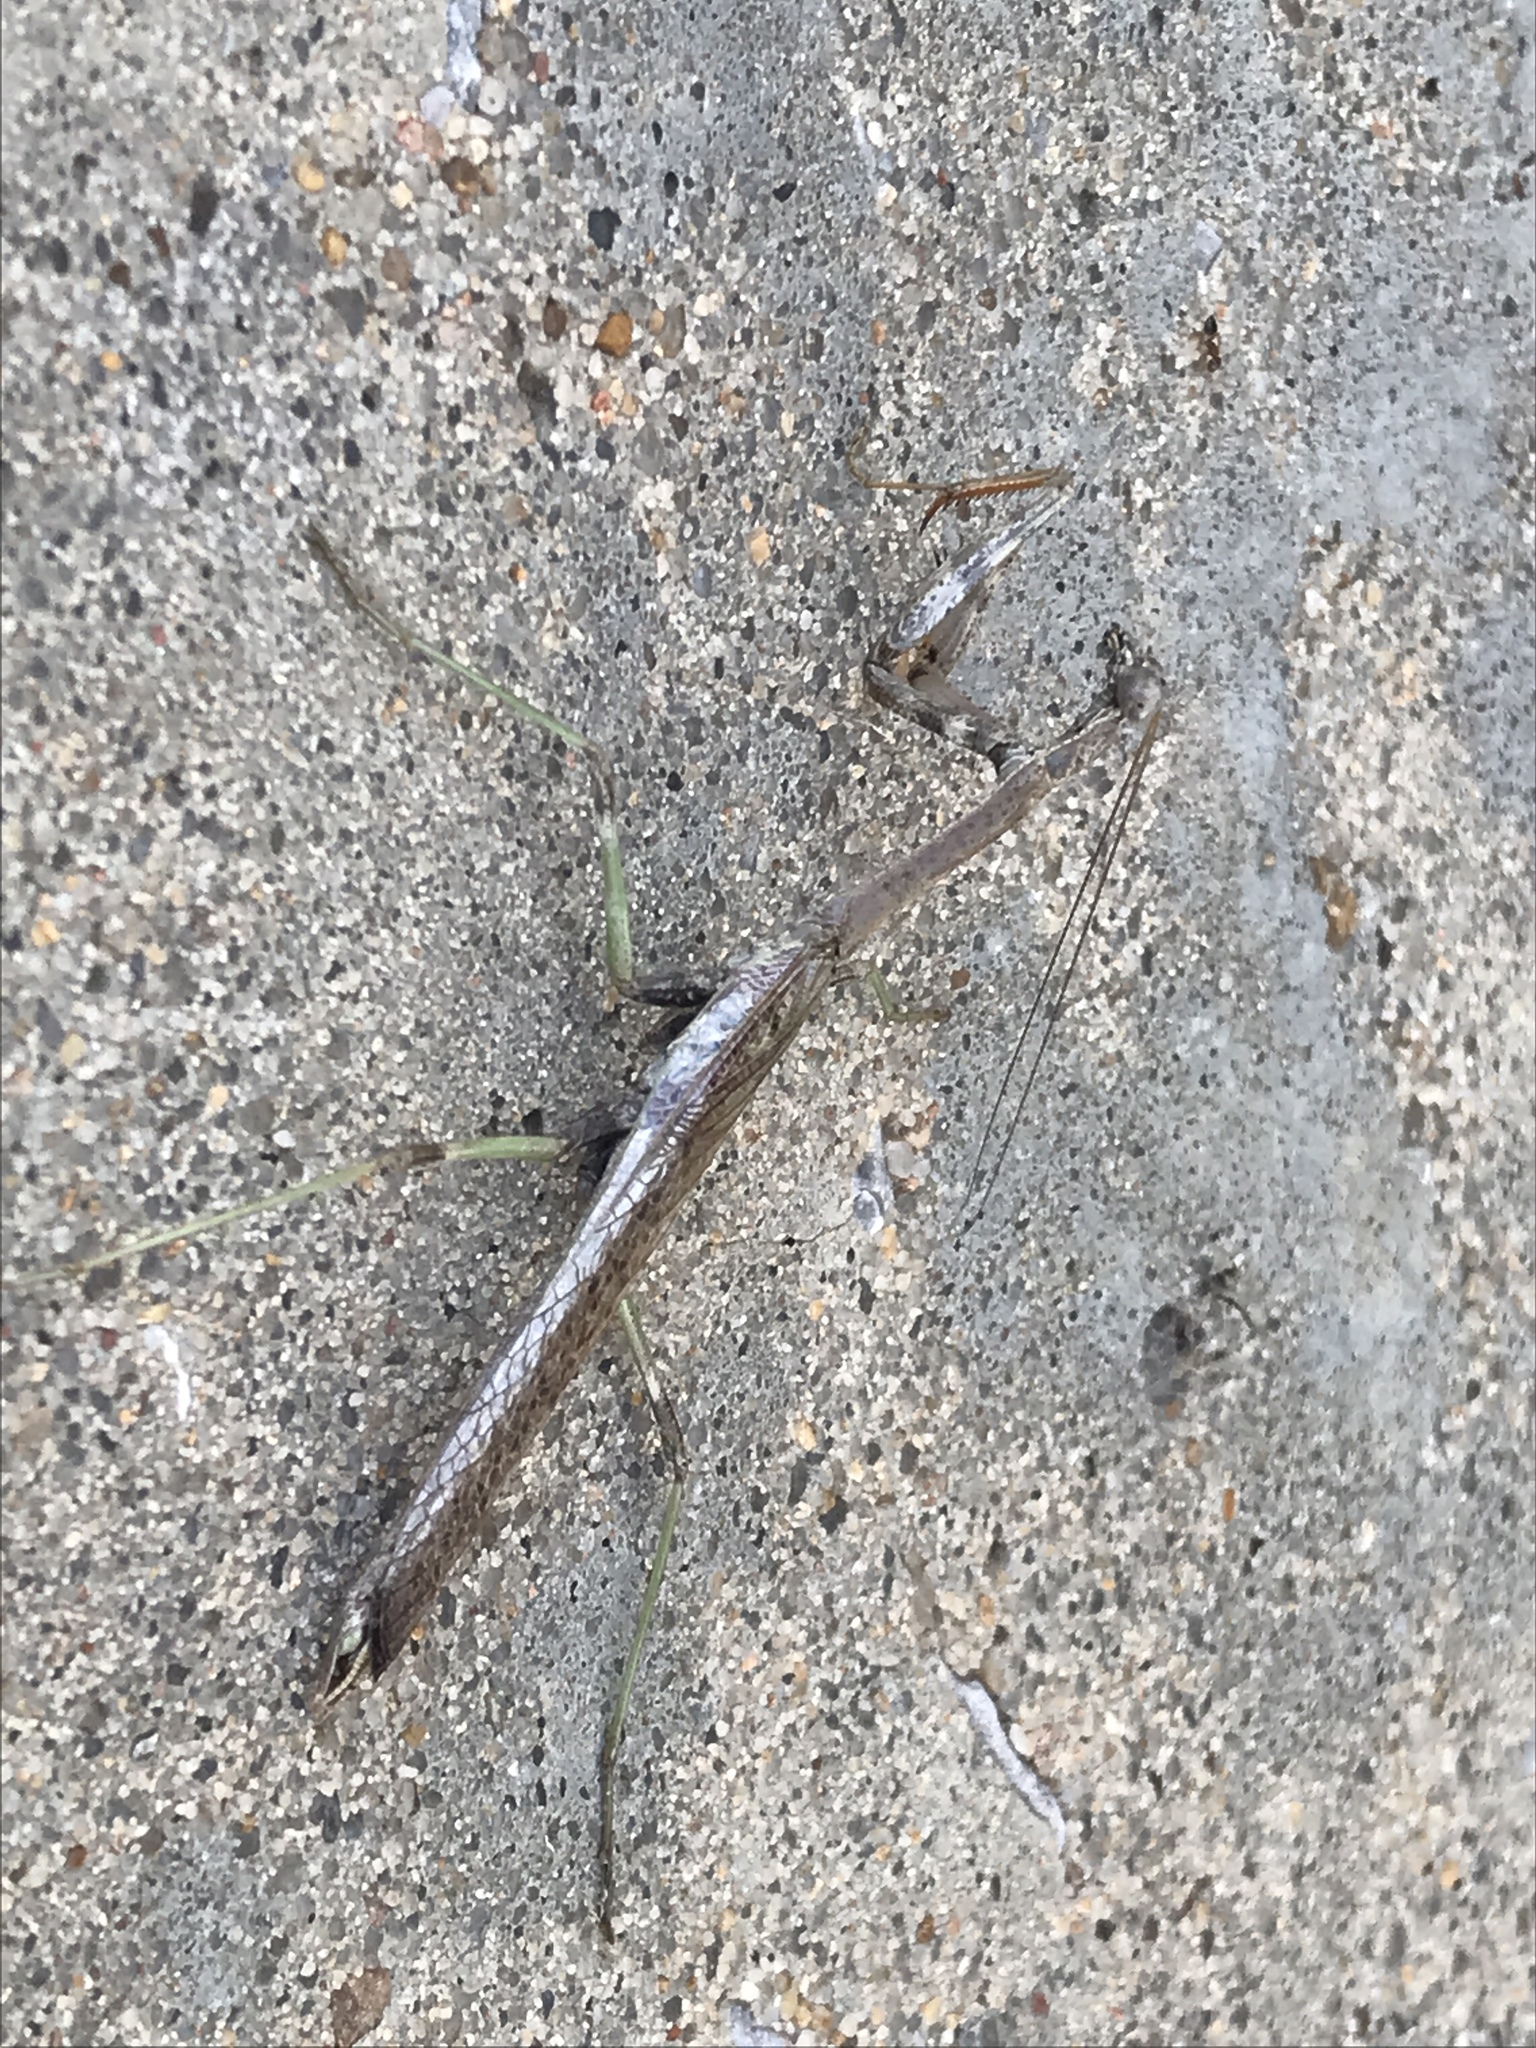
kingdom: Animalia
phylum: Arthropoda
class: Insecta
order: Mantodea
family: Mantidae
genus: Stagmomantis
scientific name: Stagmomantis carolina
